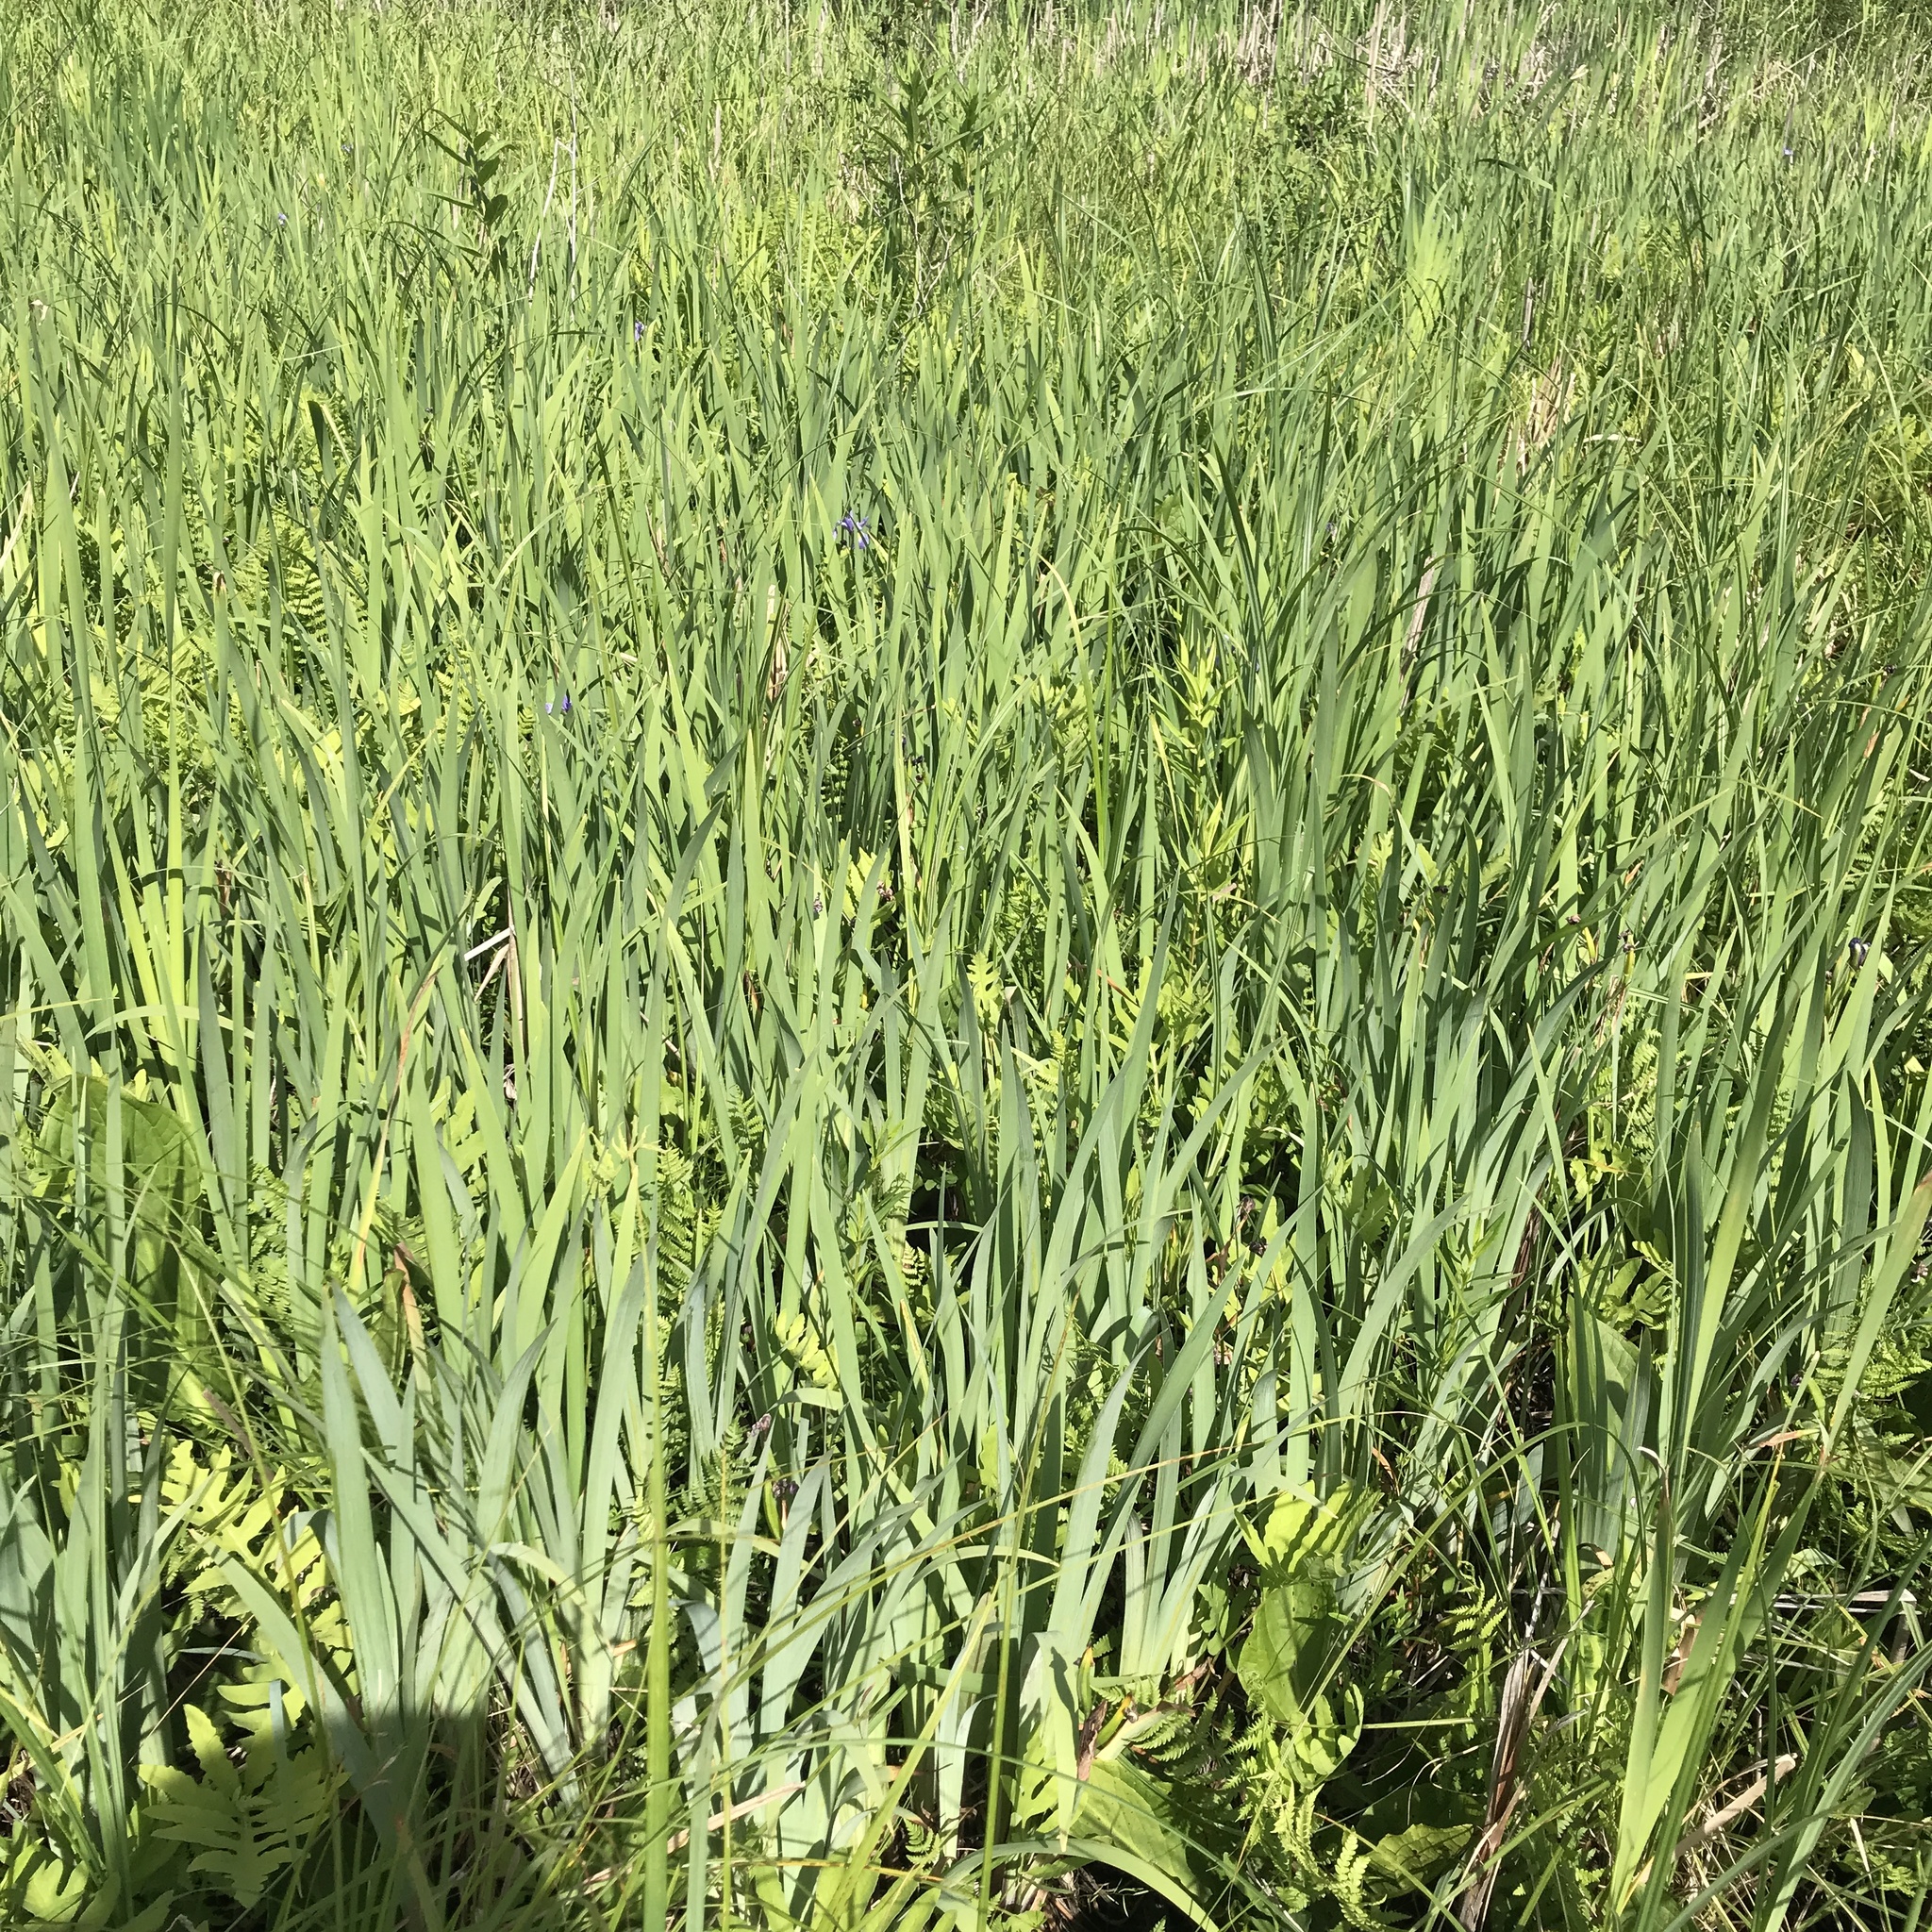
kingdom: Plantae
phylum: Tracheophyta
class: Liliopsida
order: Asparagales
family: Iridaceae
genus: Iris
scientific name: Iris virginica
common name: Southern blue flag
